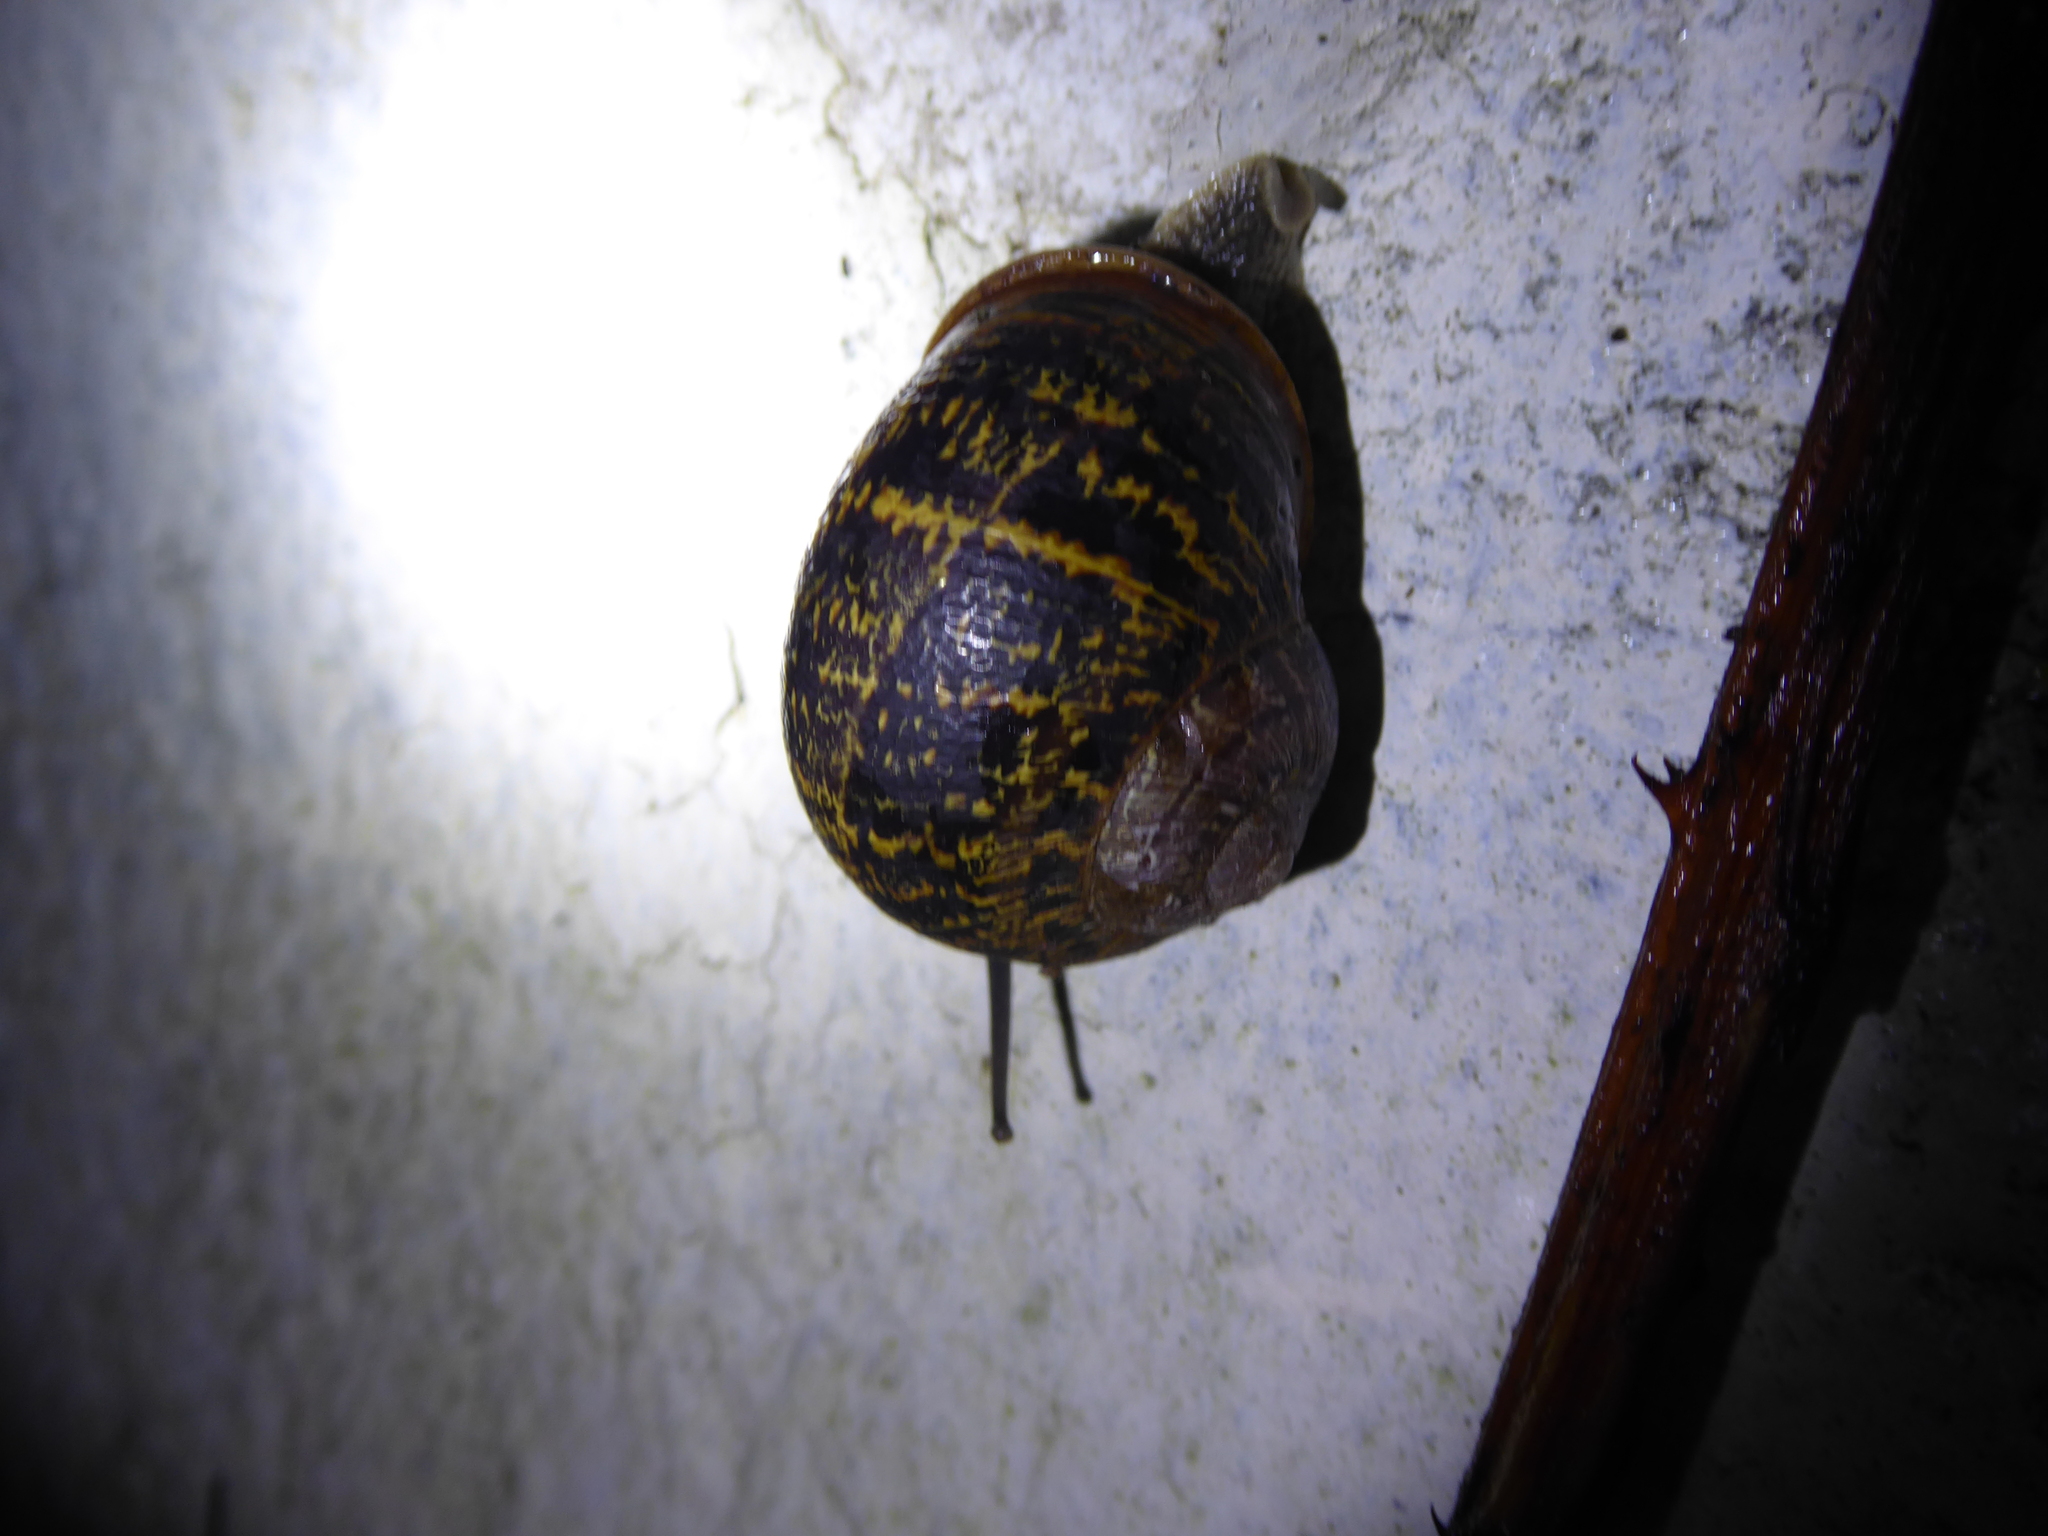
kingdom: Animalia
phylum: Mollusca
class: Gastropoda
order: Stylommatophora
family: Helicidae
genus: Cornu
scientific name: Cornu aspersum
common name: Brown garden snail
